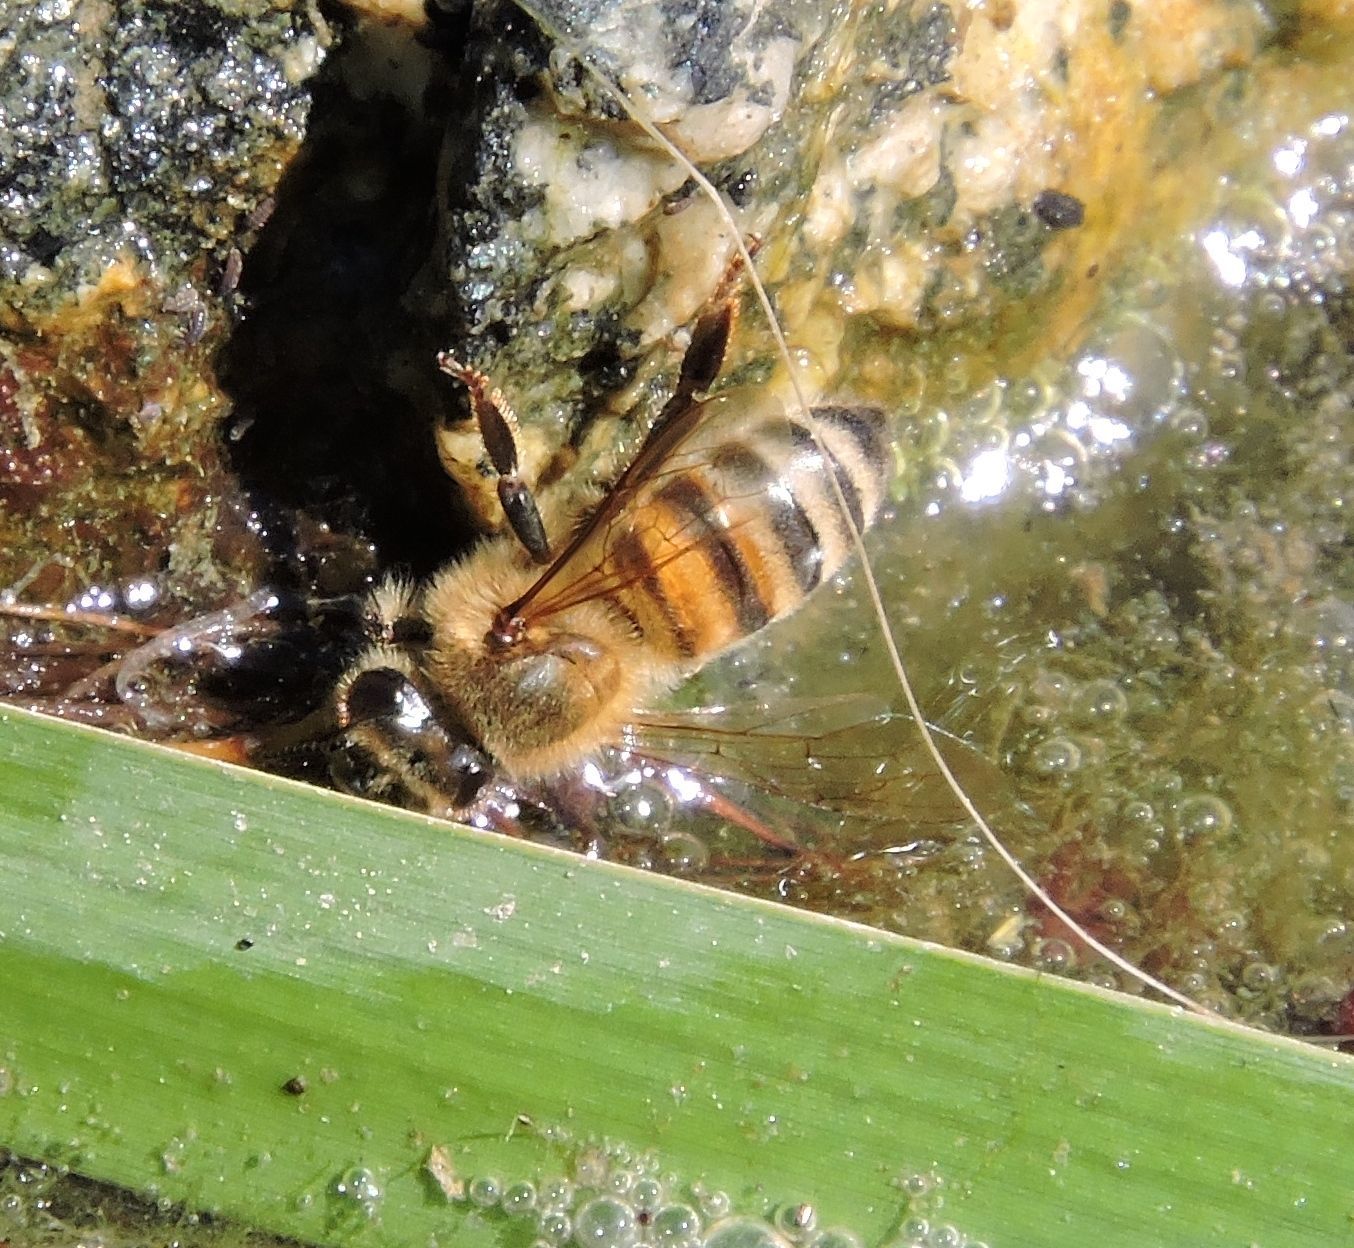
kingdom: Animalia
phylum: Arthropoda
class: Insecta
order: Hymenoptera
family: Apidae
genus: Apis
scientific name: Apis mellifera
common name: Honey bee
